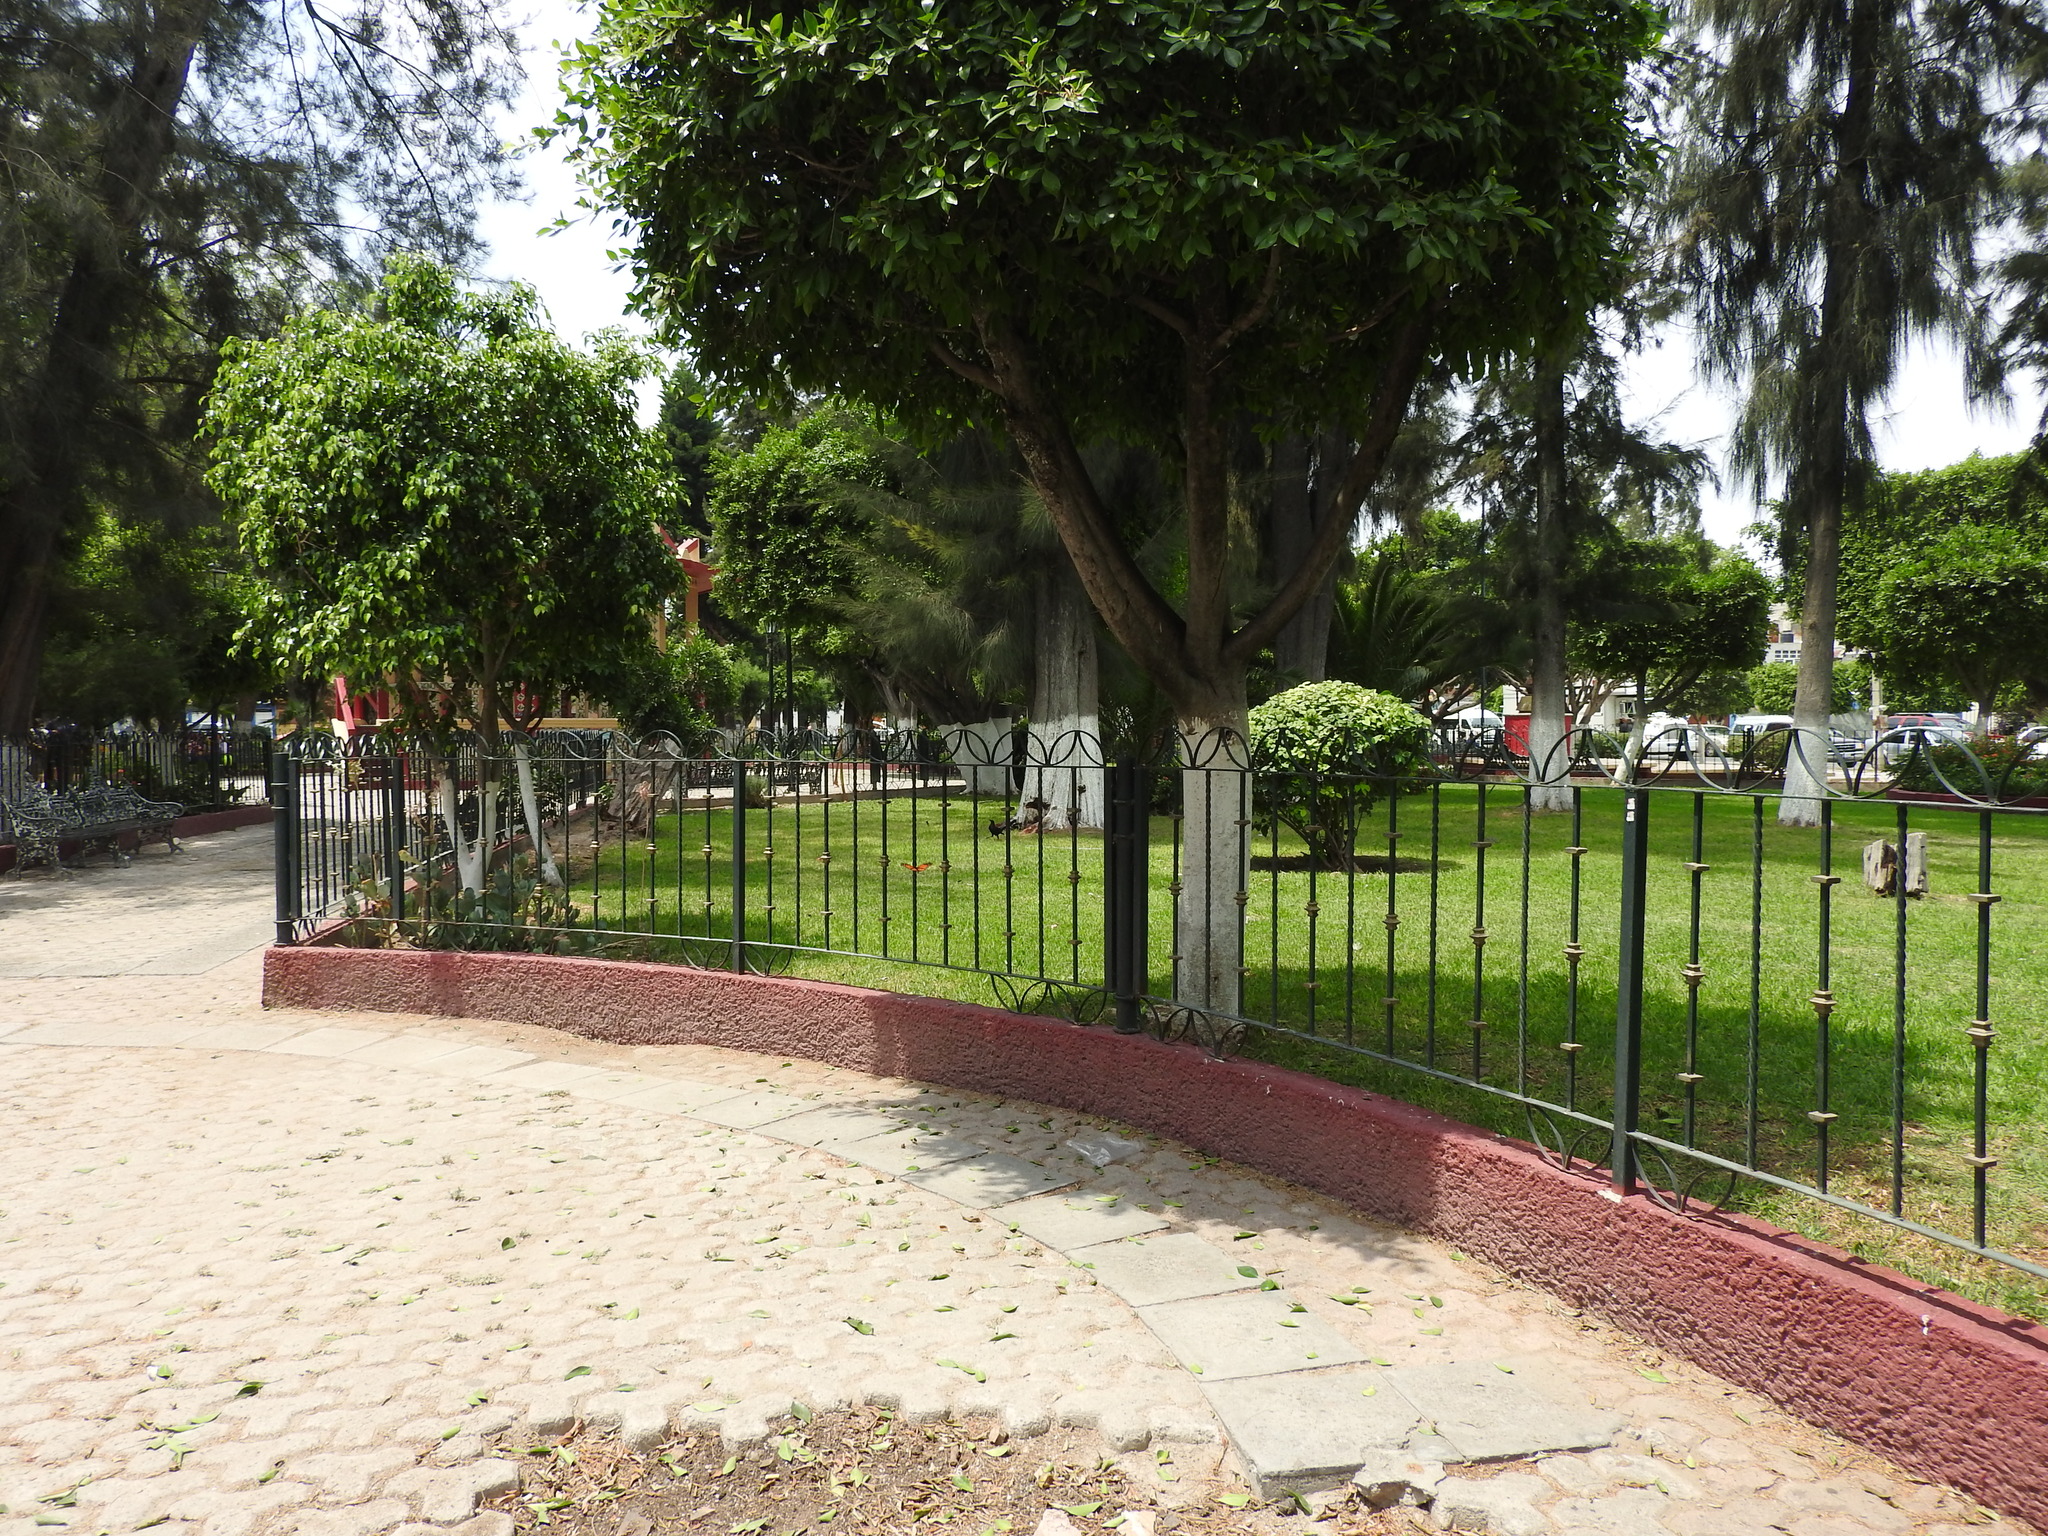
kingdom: Animalia
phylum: Arthropoda
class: Insecta
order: Lepidoptera
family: Nymphalidae
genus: Danaus
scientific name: Danaus plexippus
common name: Monarch
